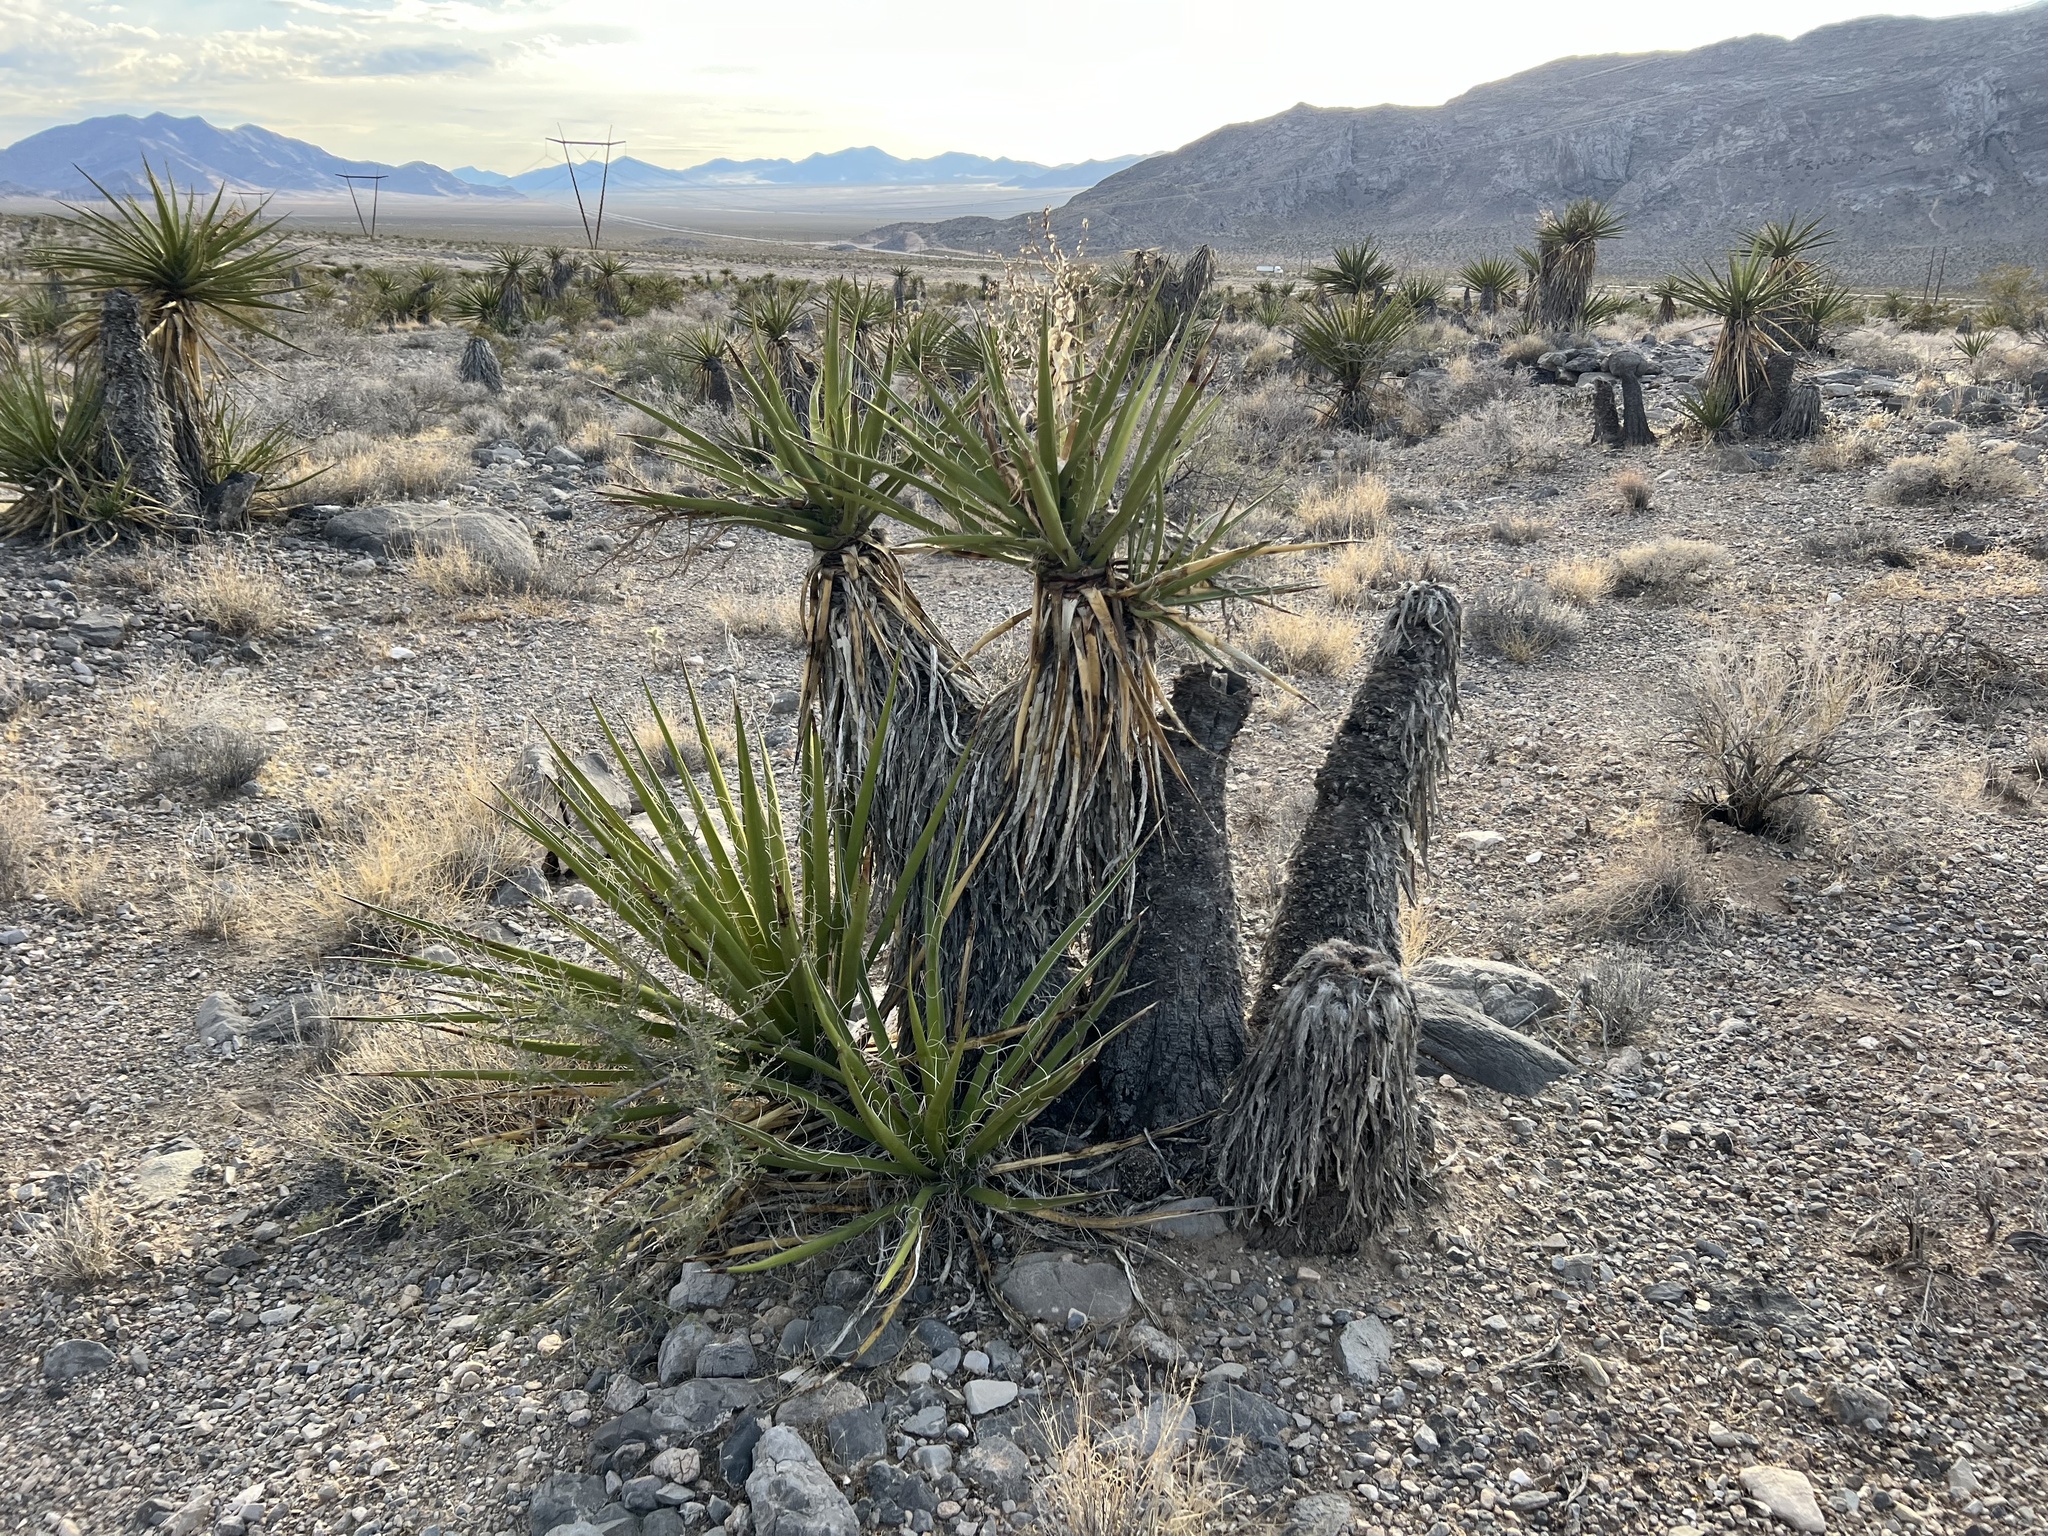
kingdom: Plantae
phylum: Tracheophyta
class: Liliopsida
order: Asparagales
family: Asparagaceae
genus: Yucca
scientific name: Yucca schidigera
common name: Mojave yucca
